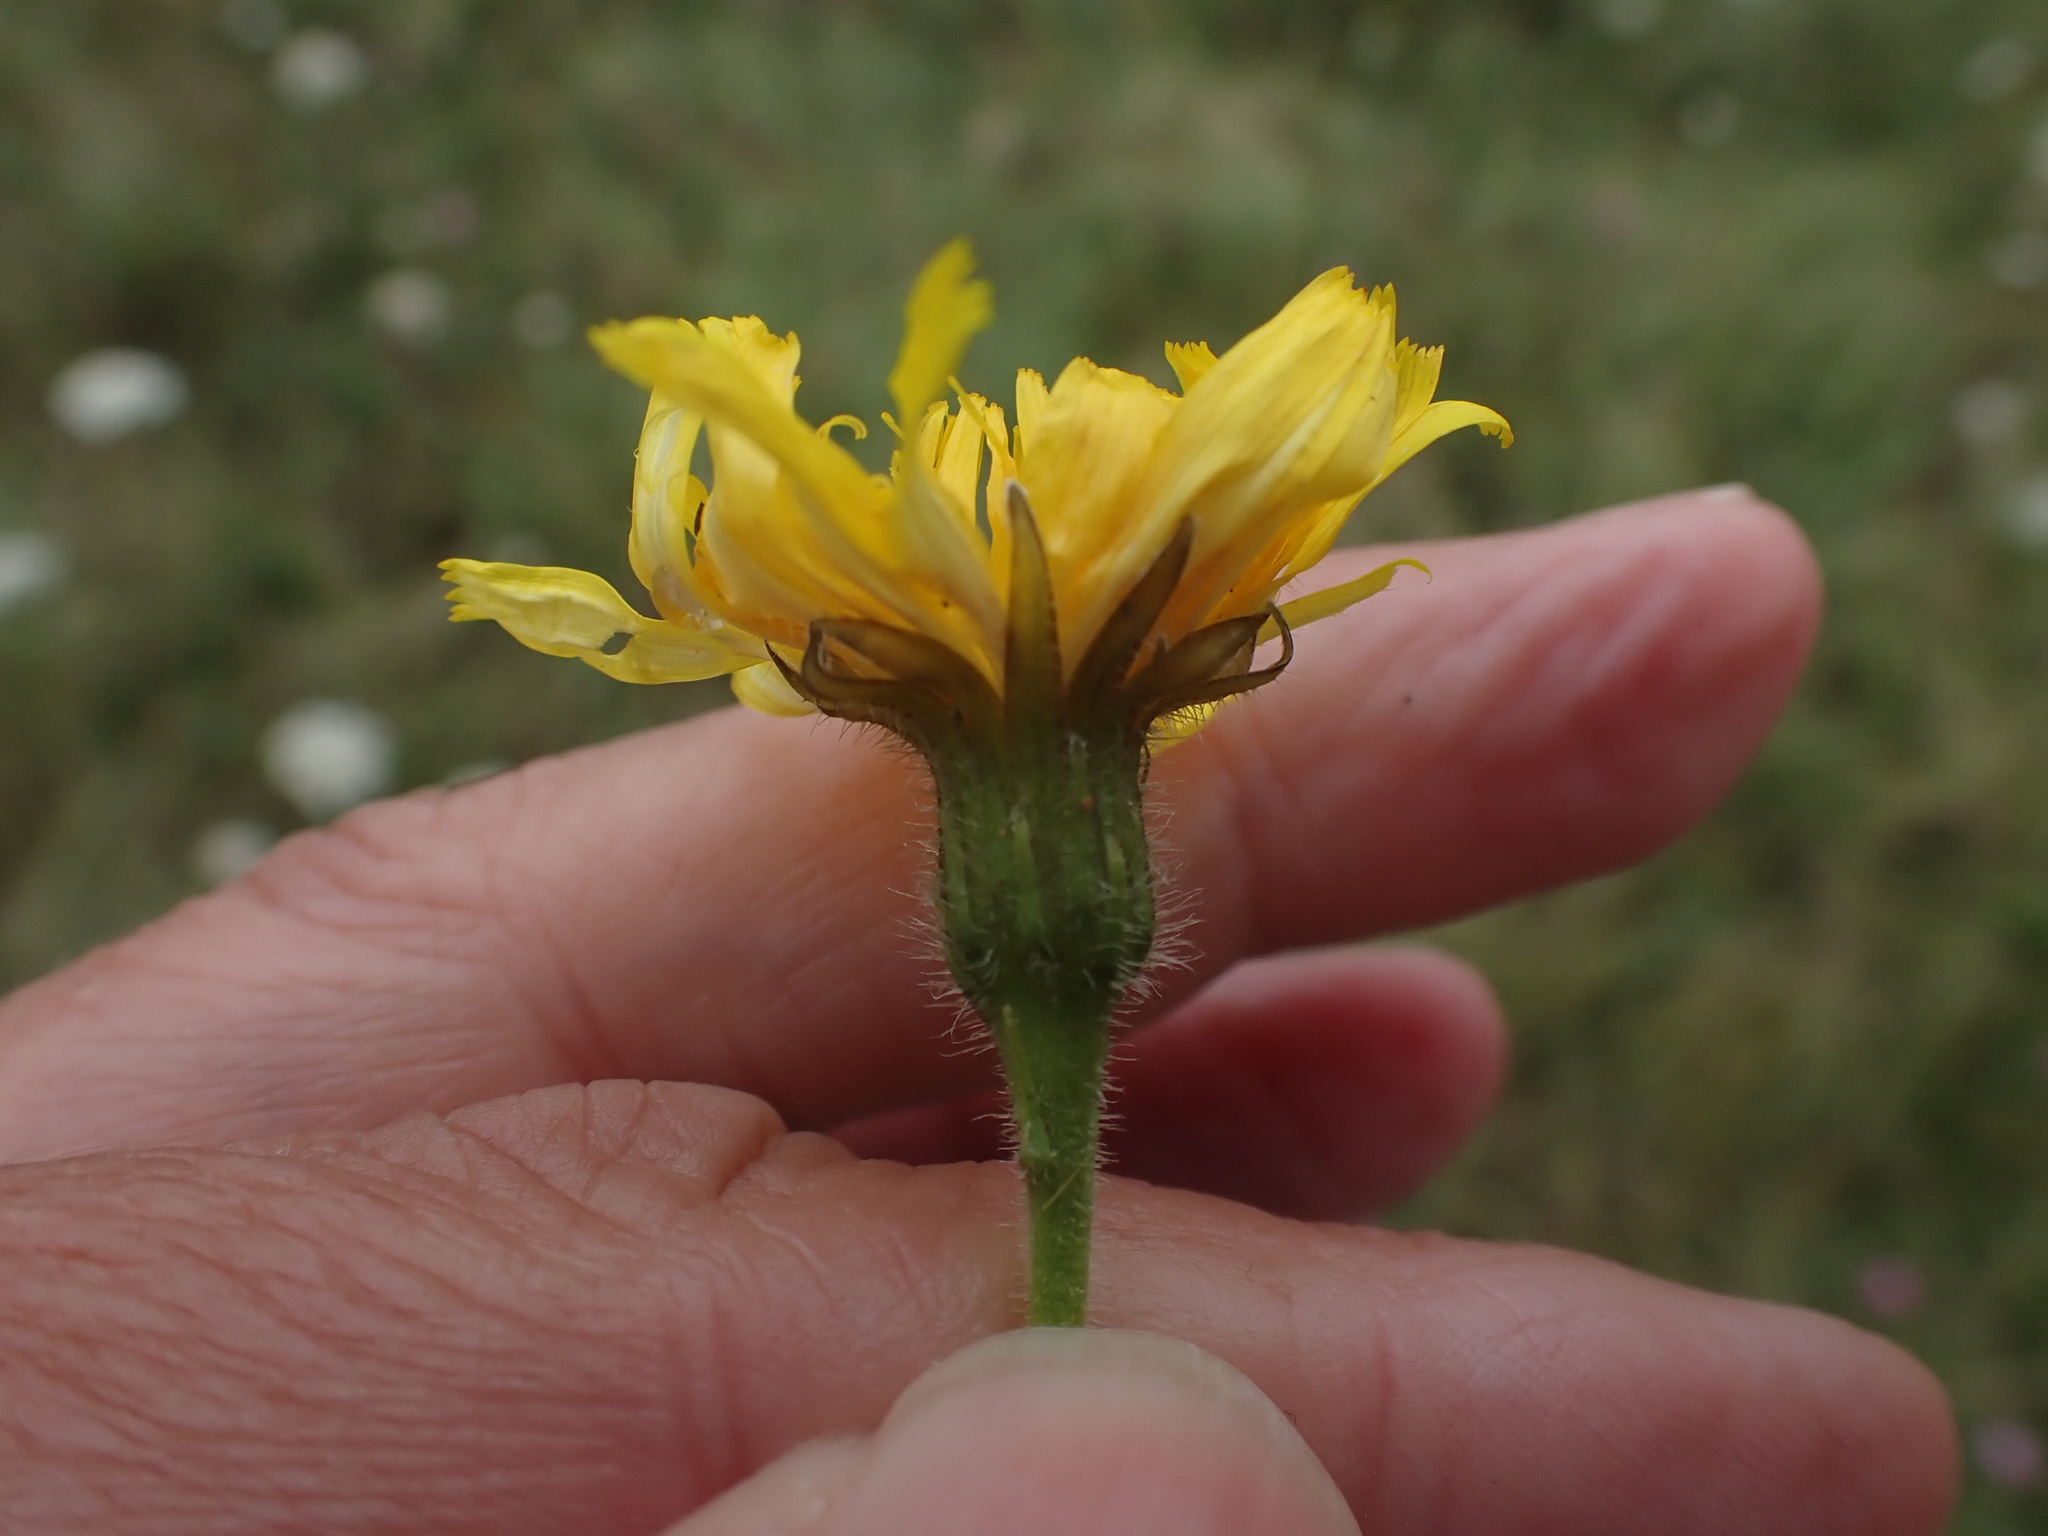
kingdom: Plantae
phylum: Tracheophyta
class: Magnoliopsida
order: Asterales
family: Asteraceae
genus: Leontodon
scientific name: Leontodon hispidus
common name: Rough hawkbit
